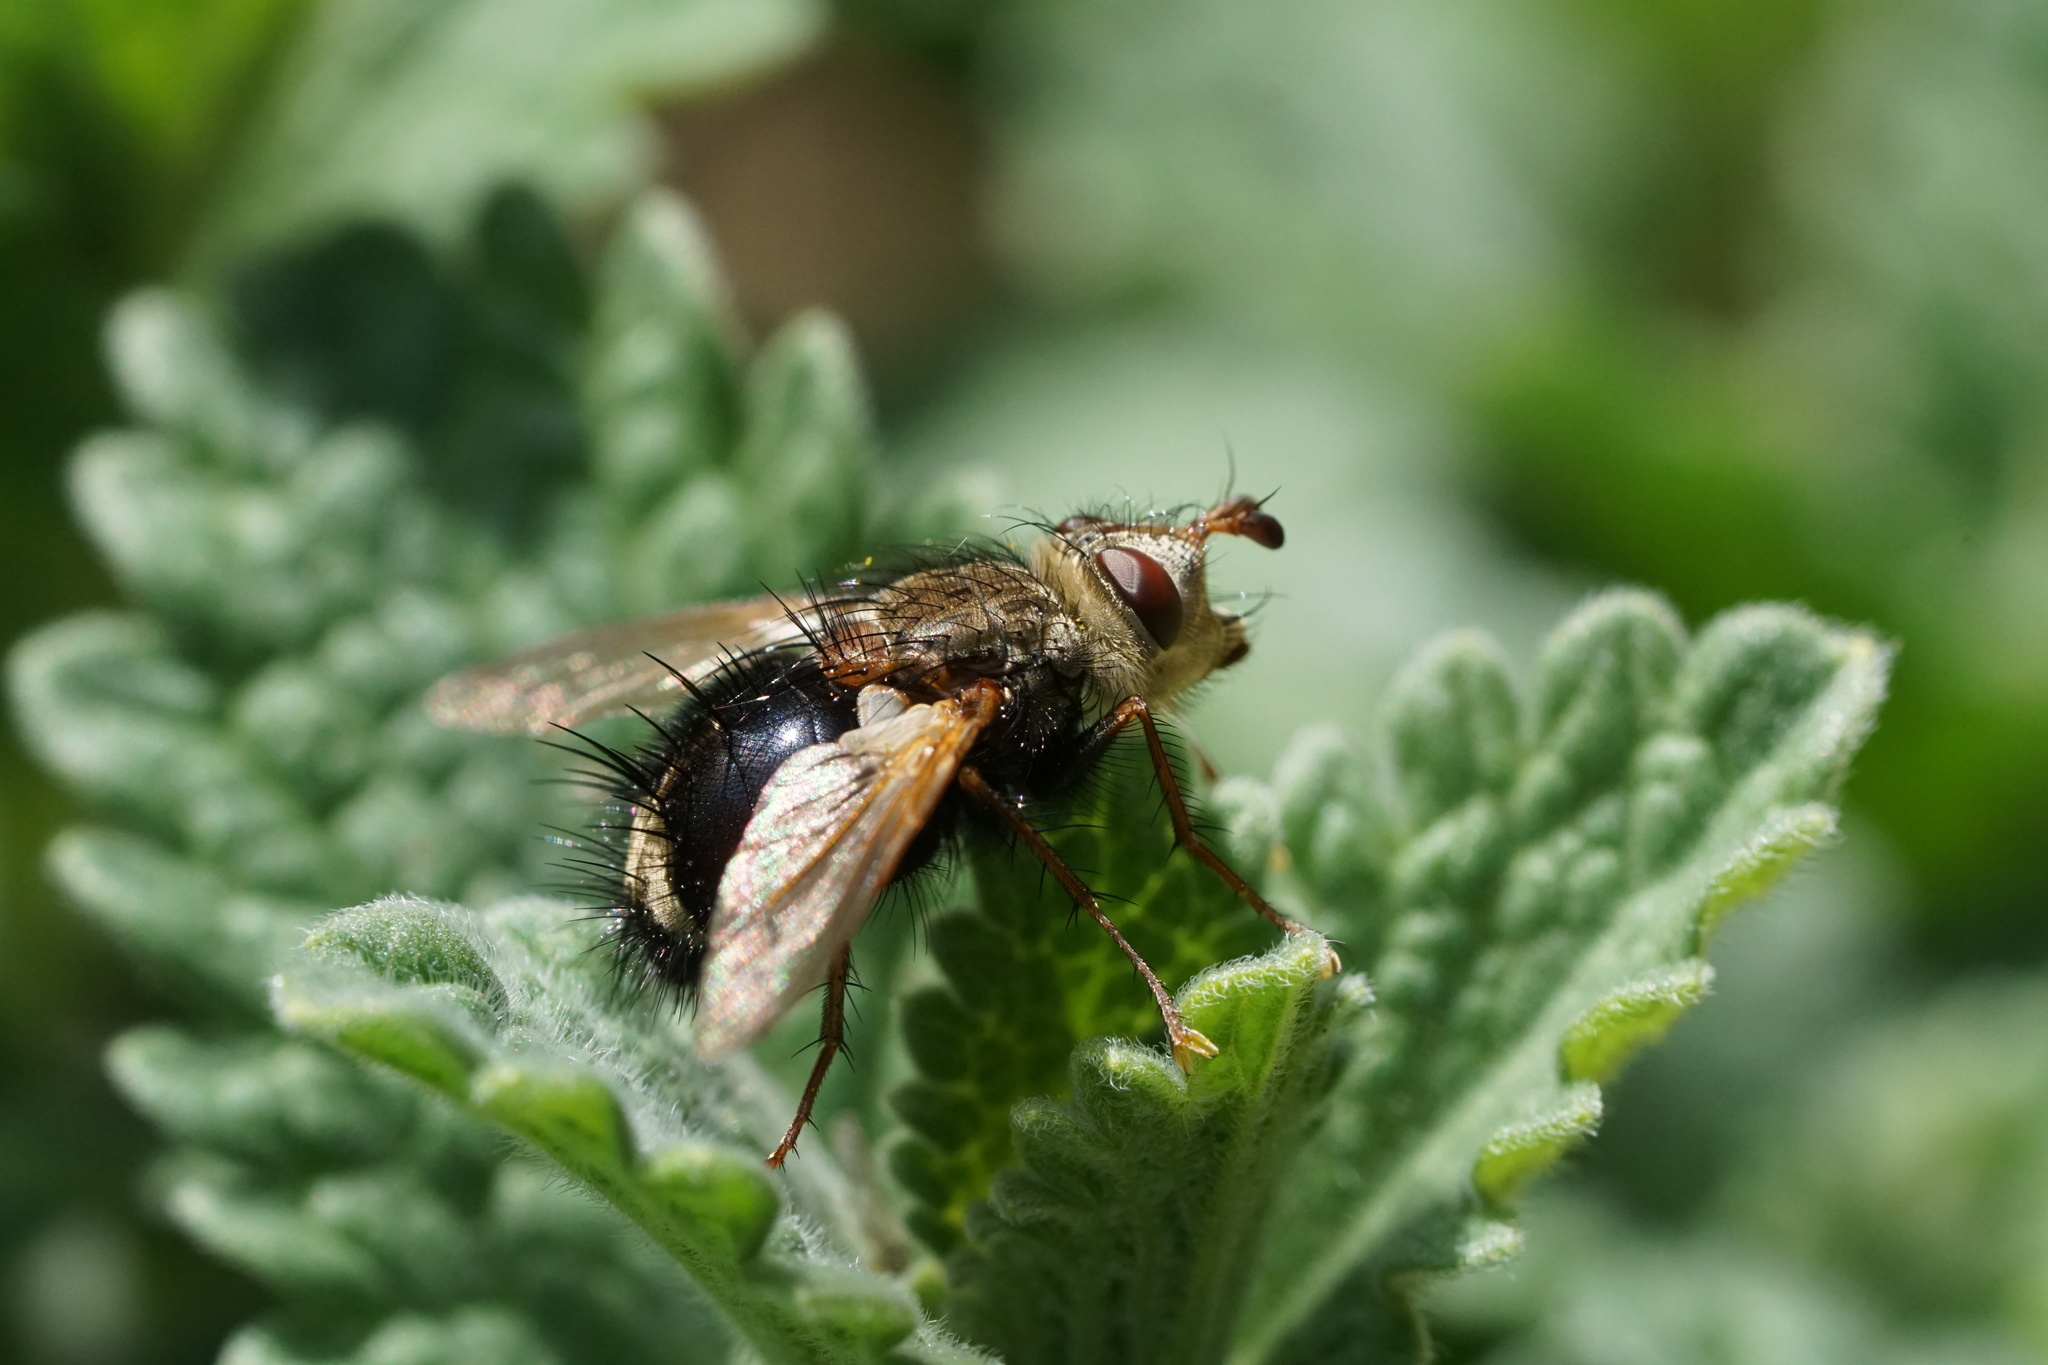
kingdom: Animalia
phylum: Arthropoda
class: Insecta
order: Diptera
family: Tachinidae
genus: Epalpus
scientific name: Epalpus signifer
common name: Early tachinid fly
